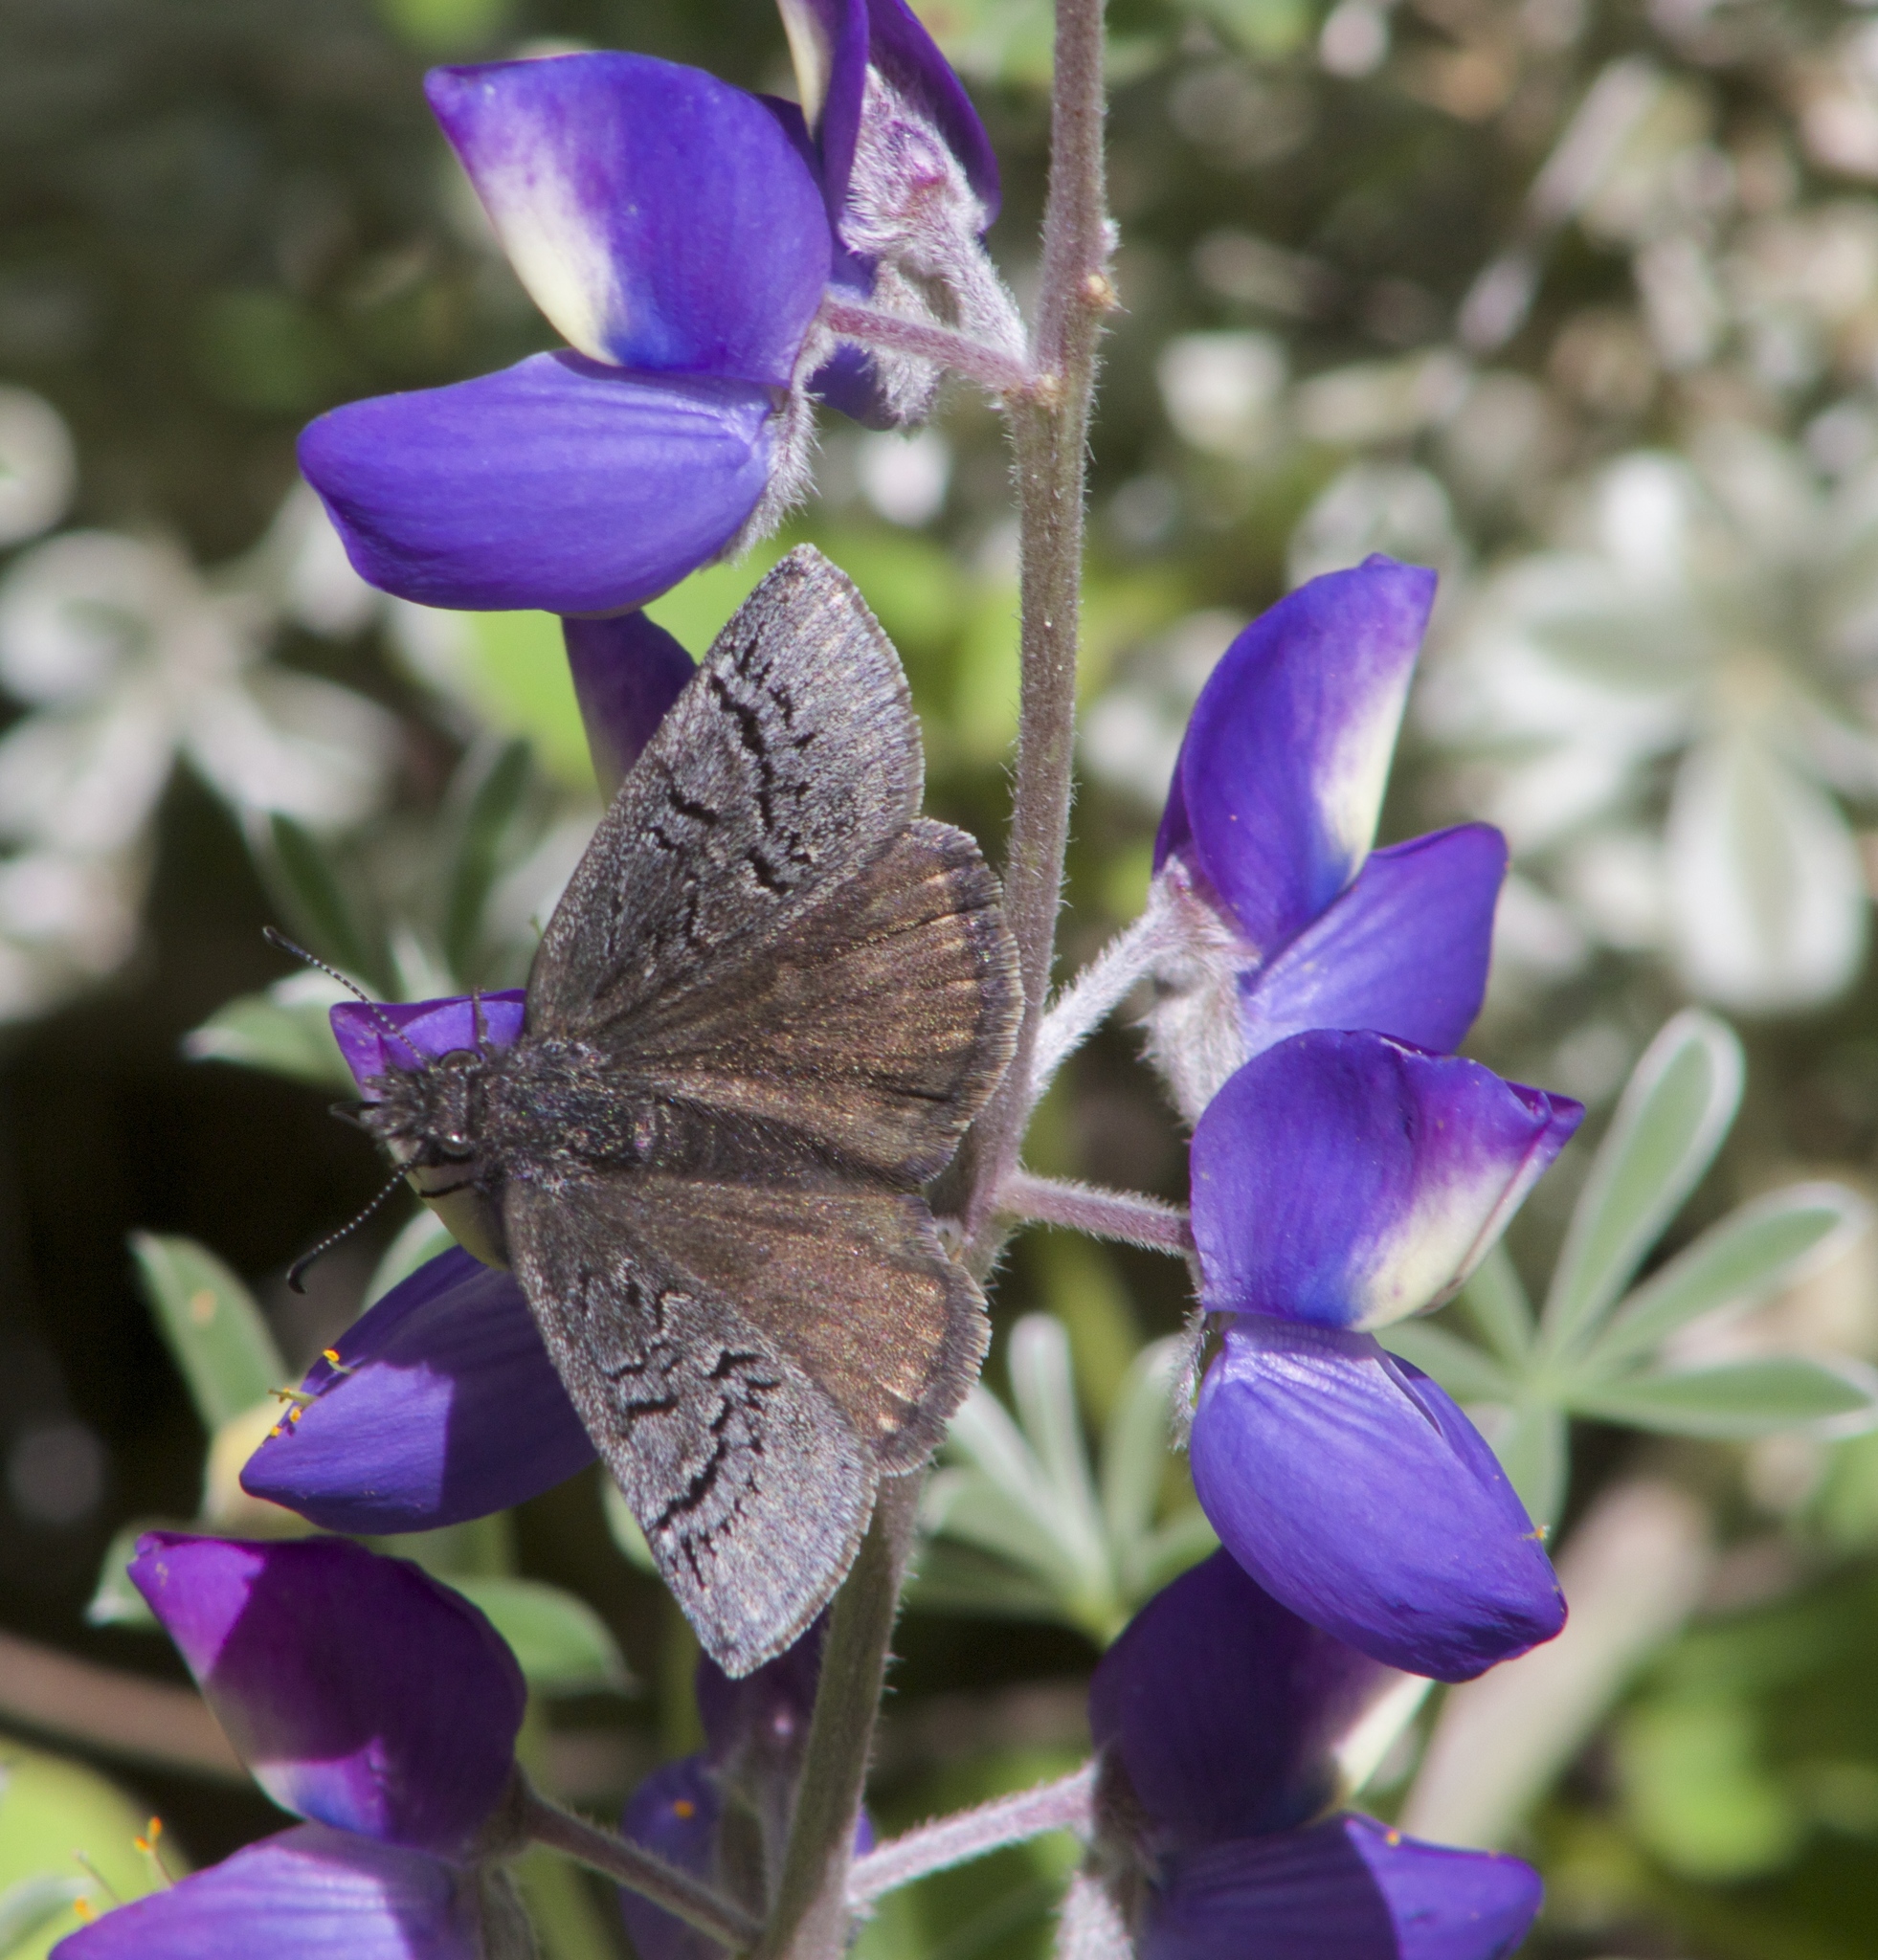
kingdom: Animalia
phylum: Arthropoda
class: Insecta
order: Lepidoptera
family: Hesperiidae
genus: Erynnis
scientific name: Erynnis brizo
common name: Sleepy duskywing
